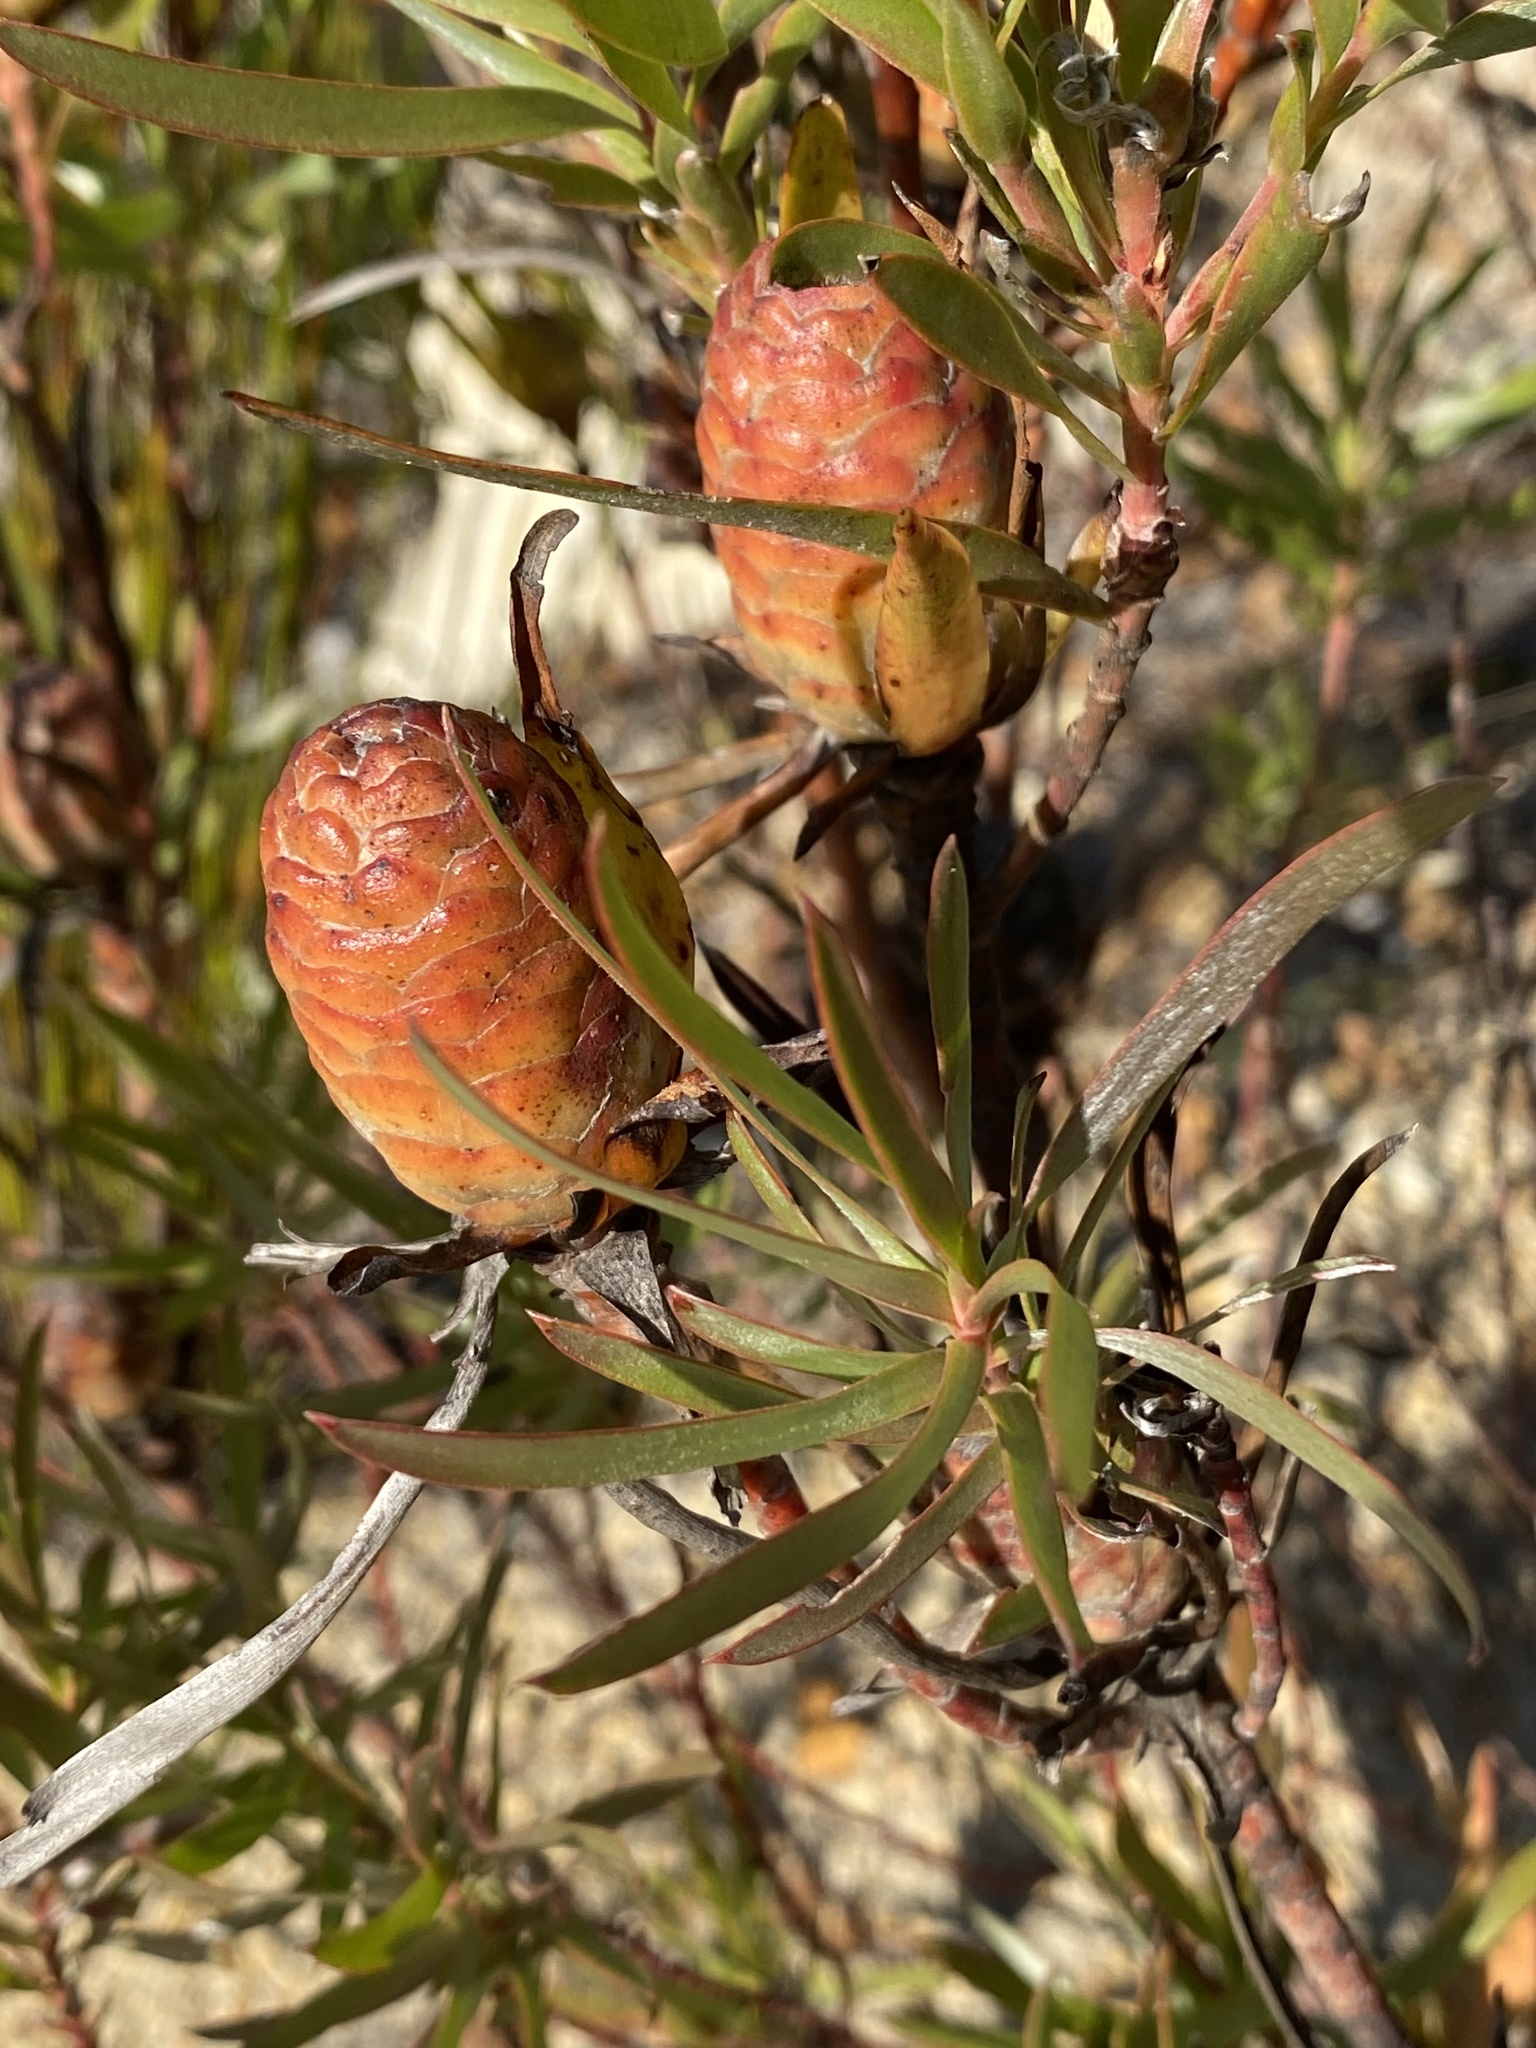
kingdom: Plantae
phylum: Tracheophyta
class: Magnoliopsida
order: Proteales
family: Proteaceae
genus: Leucadendron
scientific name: Leucadendron xanthoconus
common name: Sickle-leaf conebush
